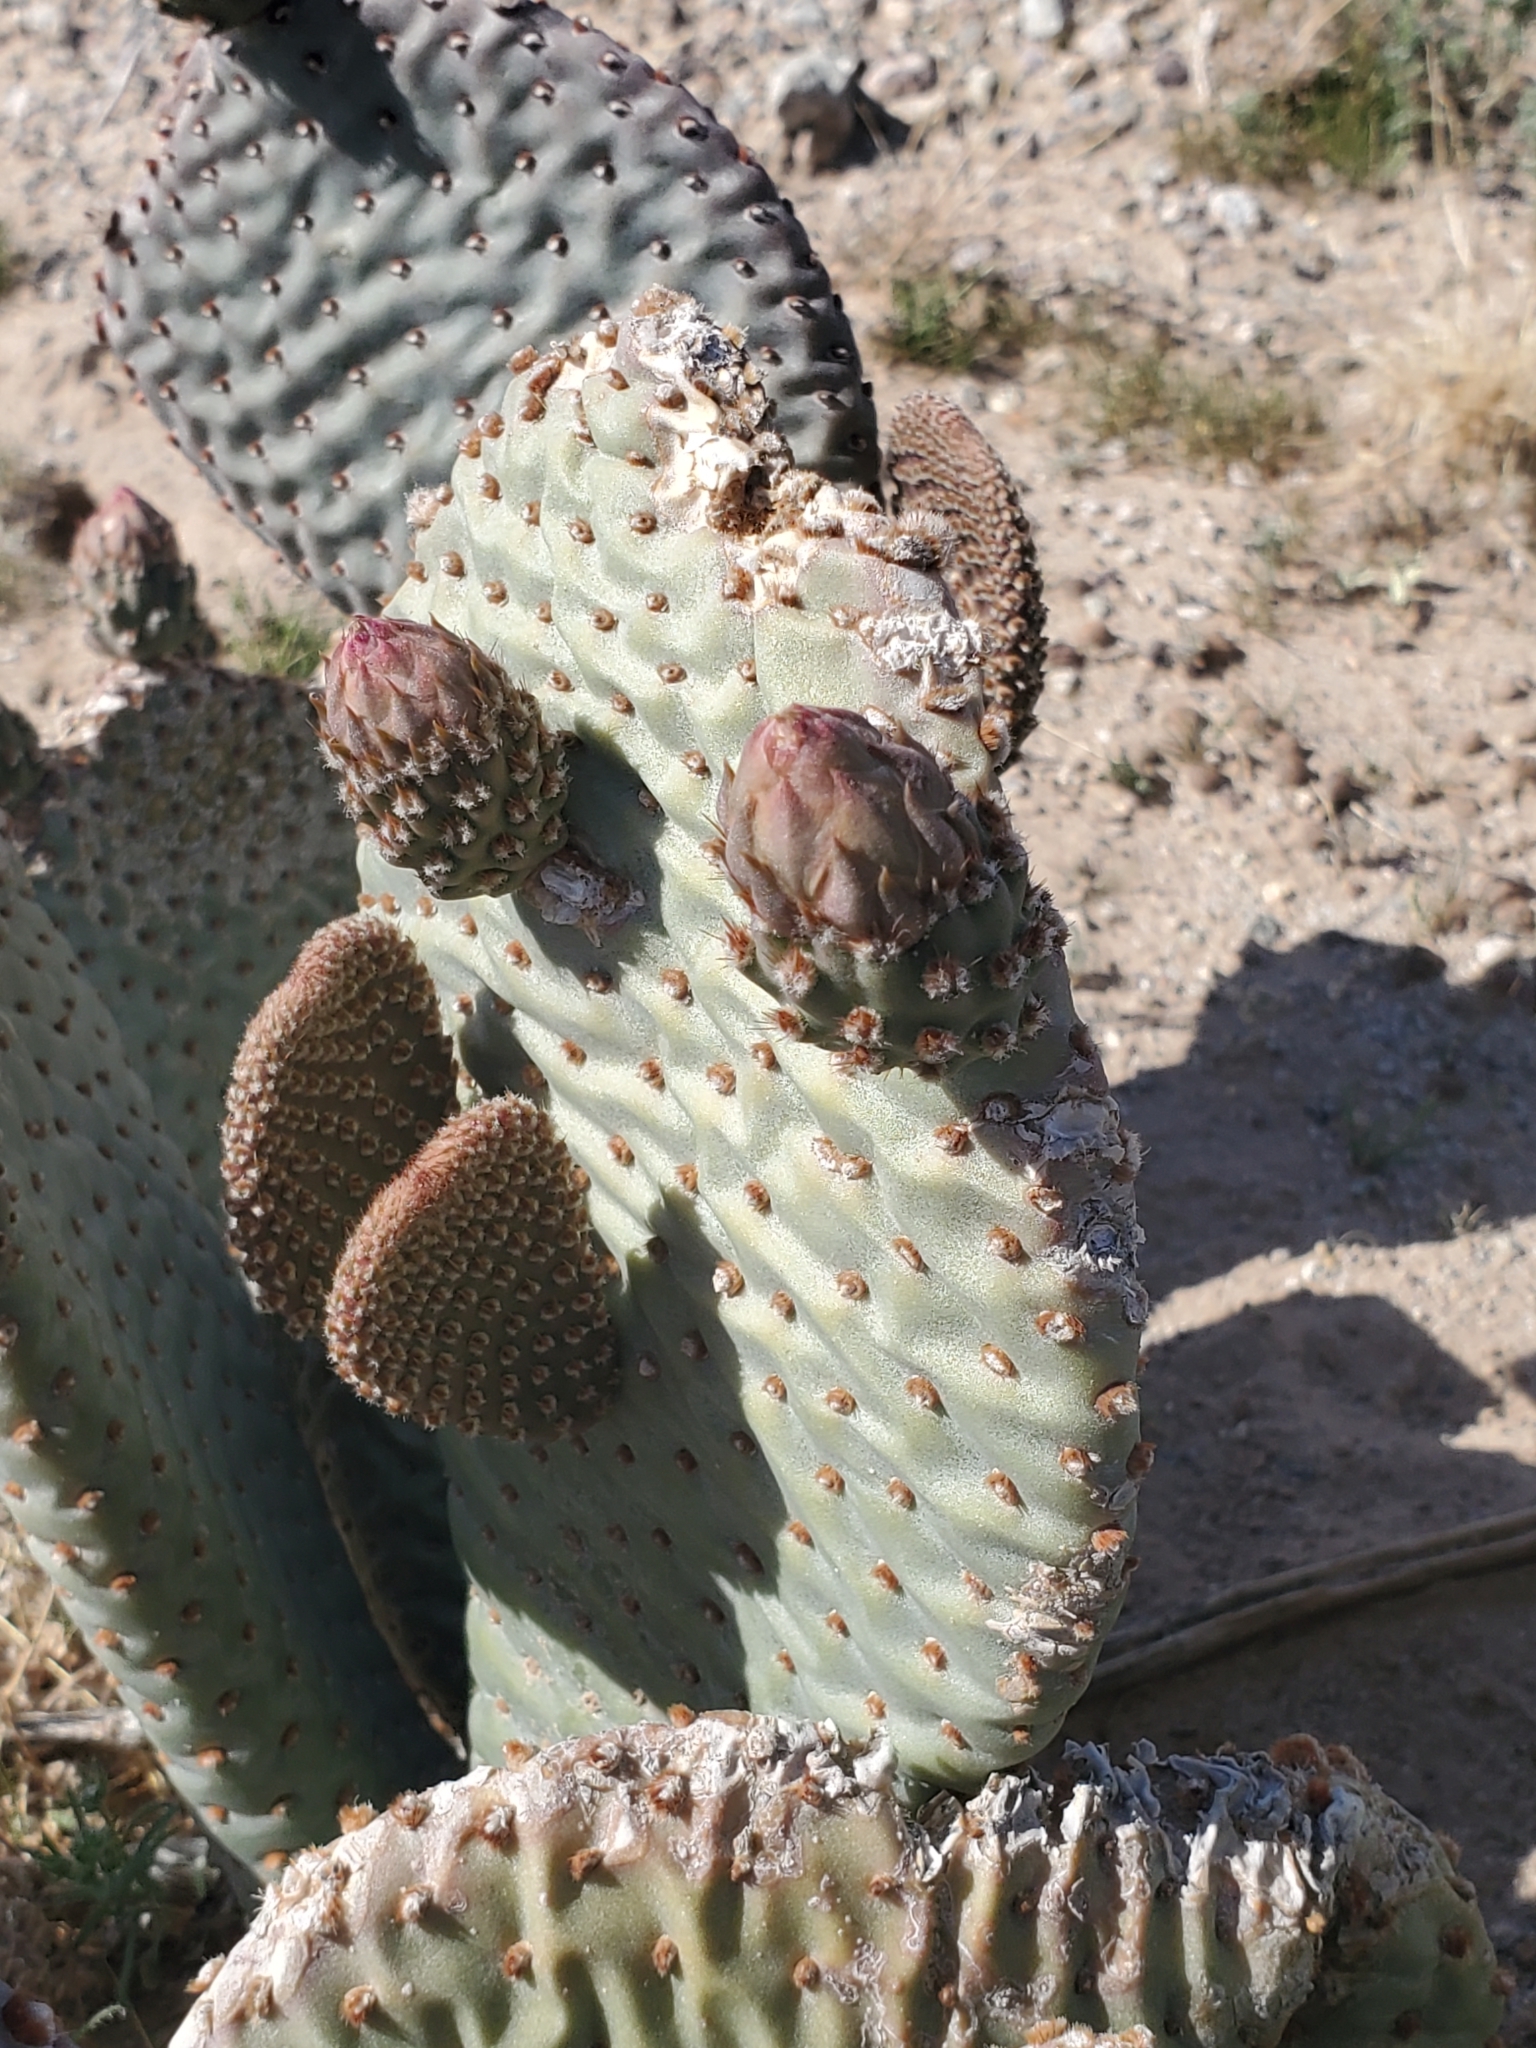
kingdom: Plantae
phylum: Tracheophyta
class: Magnoliopsida
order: Caryophyllales
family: Cactaceae
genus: Opuntia
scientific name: Opuntia basilaris
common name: Beavertail prickly-pear
